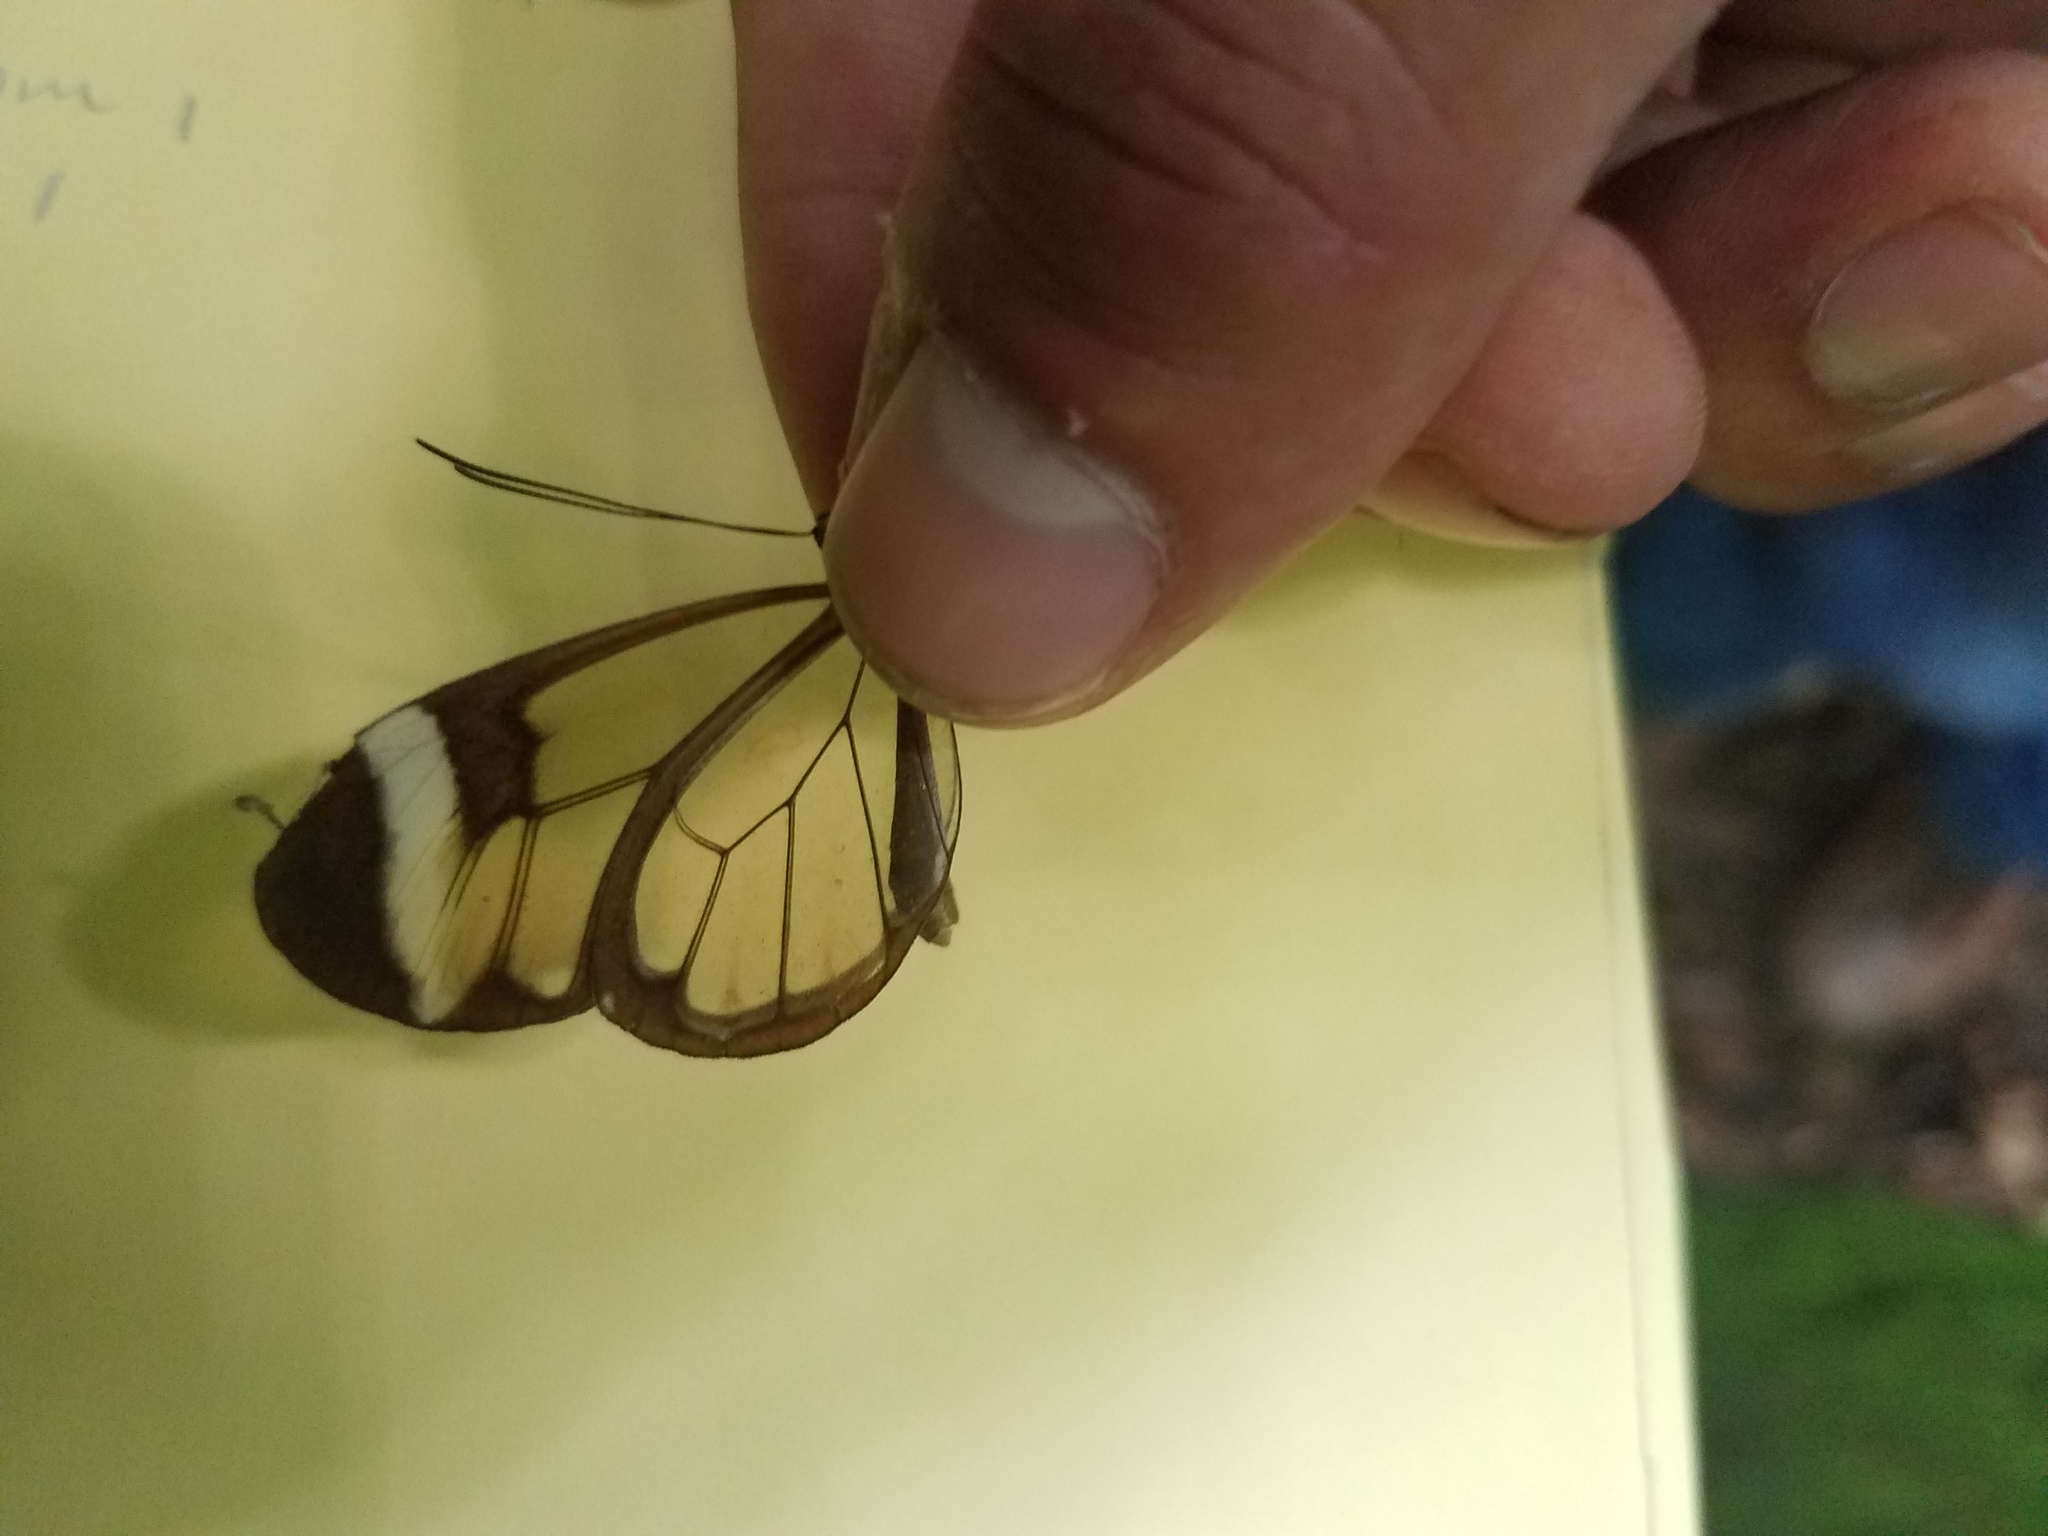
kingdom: Animalia
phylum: Arthropoda
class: Insecta
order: Lepidoptera
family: Nymphalidae
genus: Greta
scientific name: Greta morgane
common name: Thick-tipped greta
